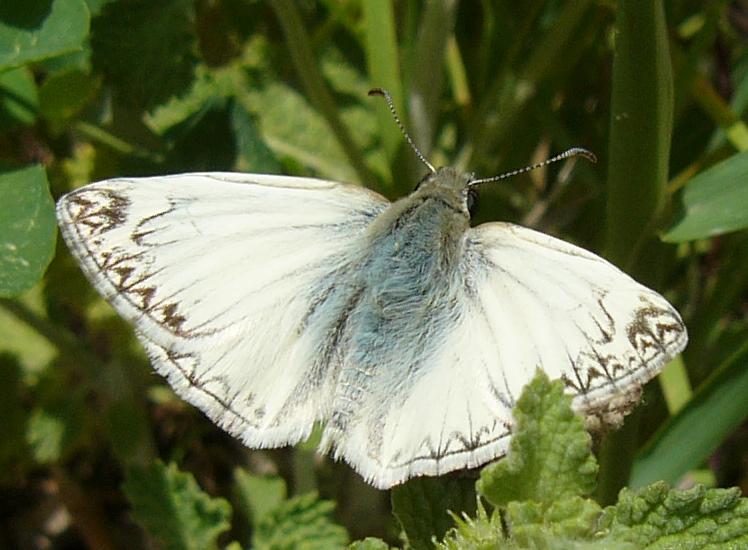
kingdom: Animalia
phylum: Arthropoda
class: Insecta
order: Lepidoptera
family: Hesperiidae
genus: Heliopetes
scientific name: Heliopetes ericetorum
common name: Northern white-skipper
